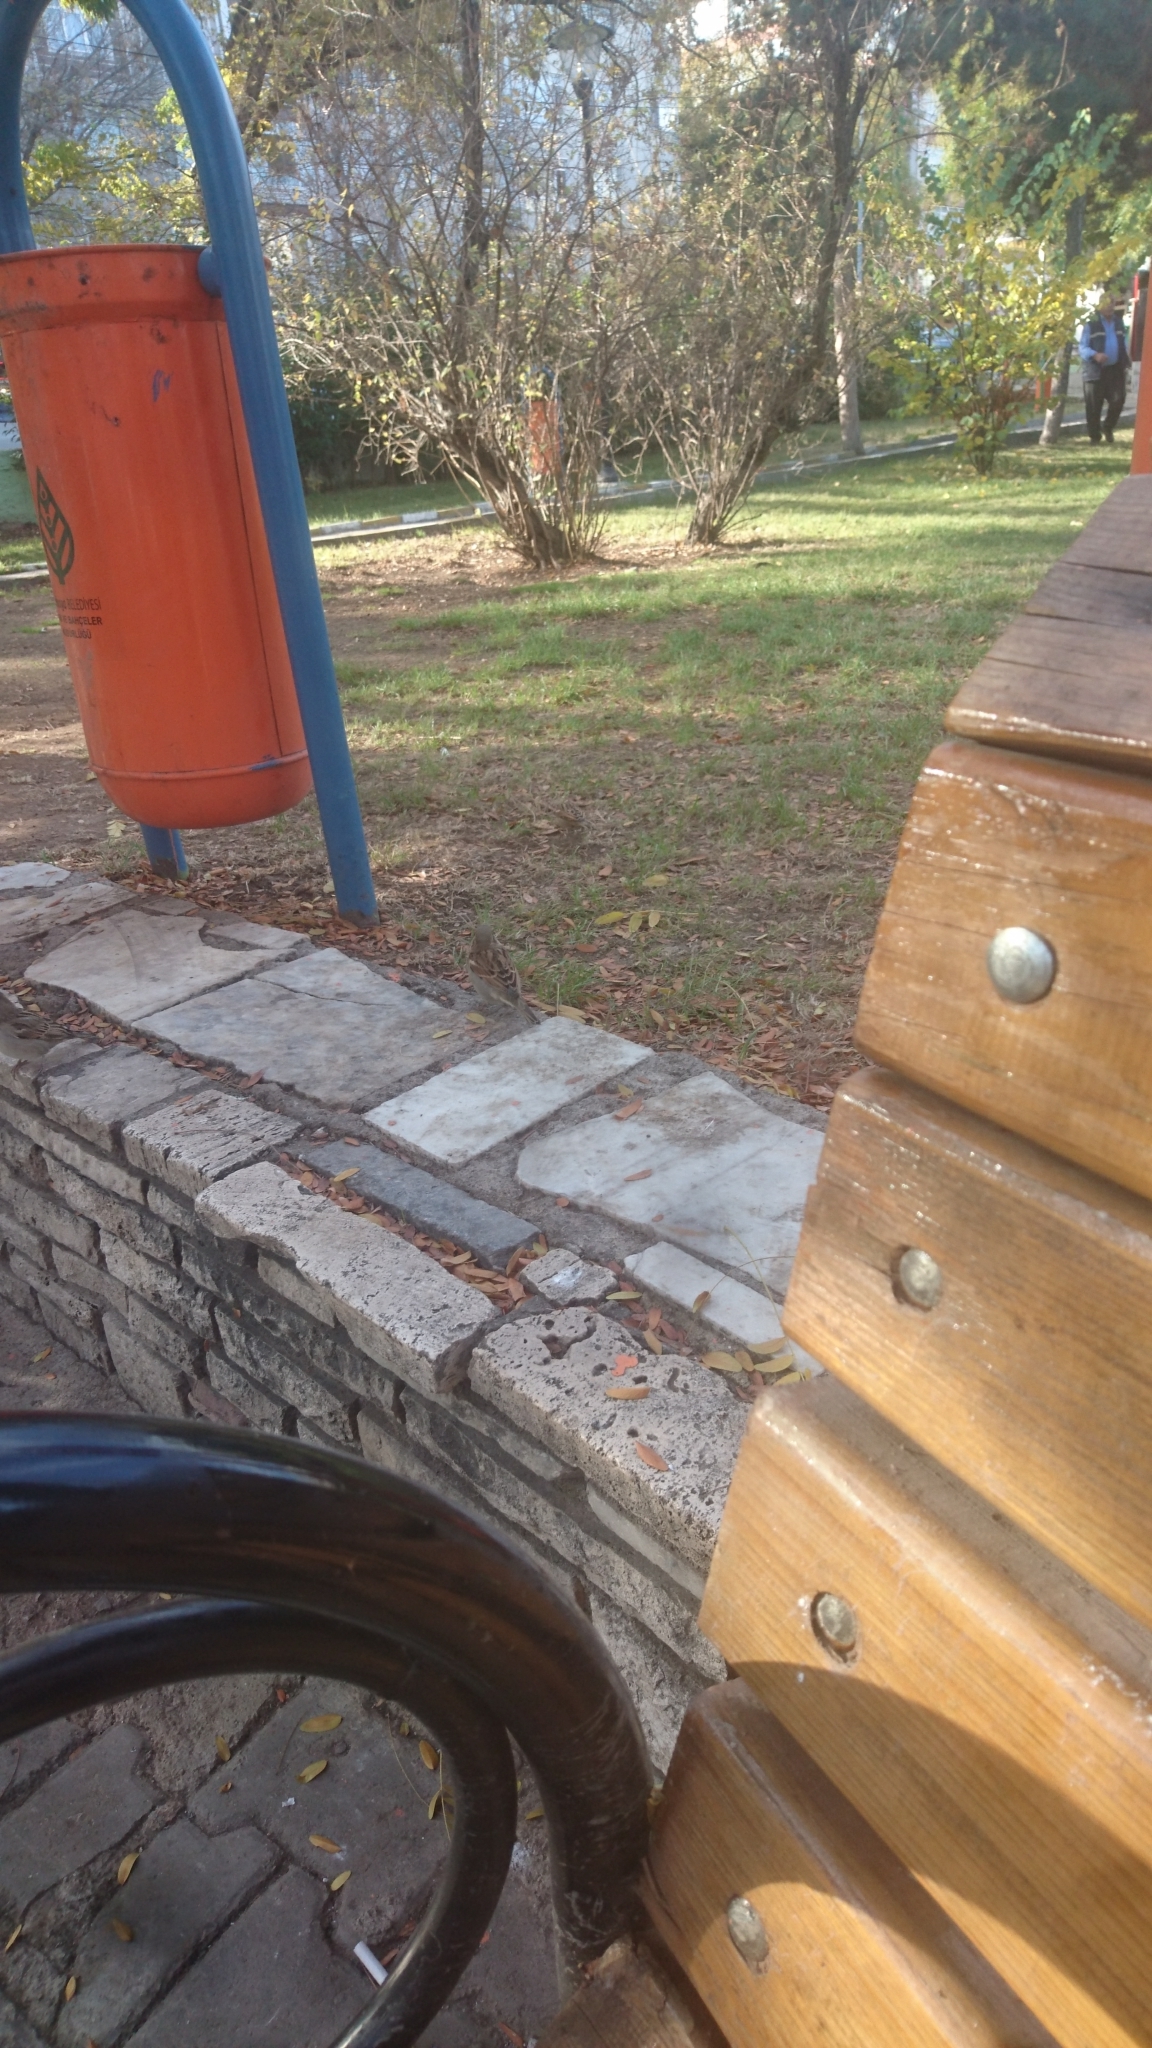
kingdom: Animalia
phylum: Chordata
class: Aves
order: Passeriformes
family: Passeridae
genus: Passer
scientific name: Passer domesticus
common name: House sparrow
